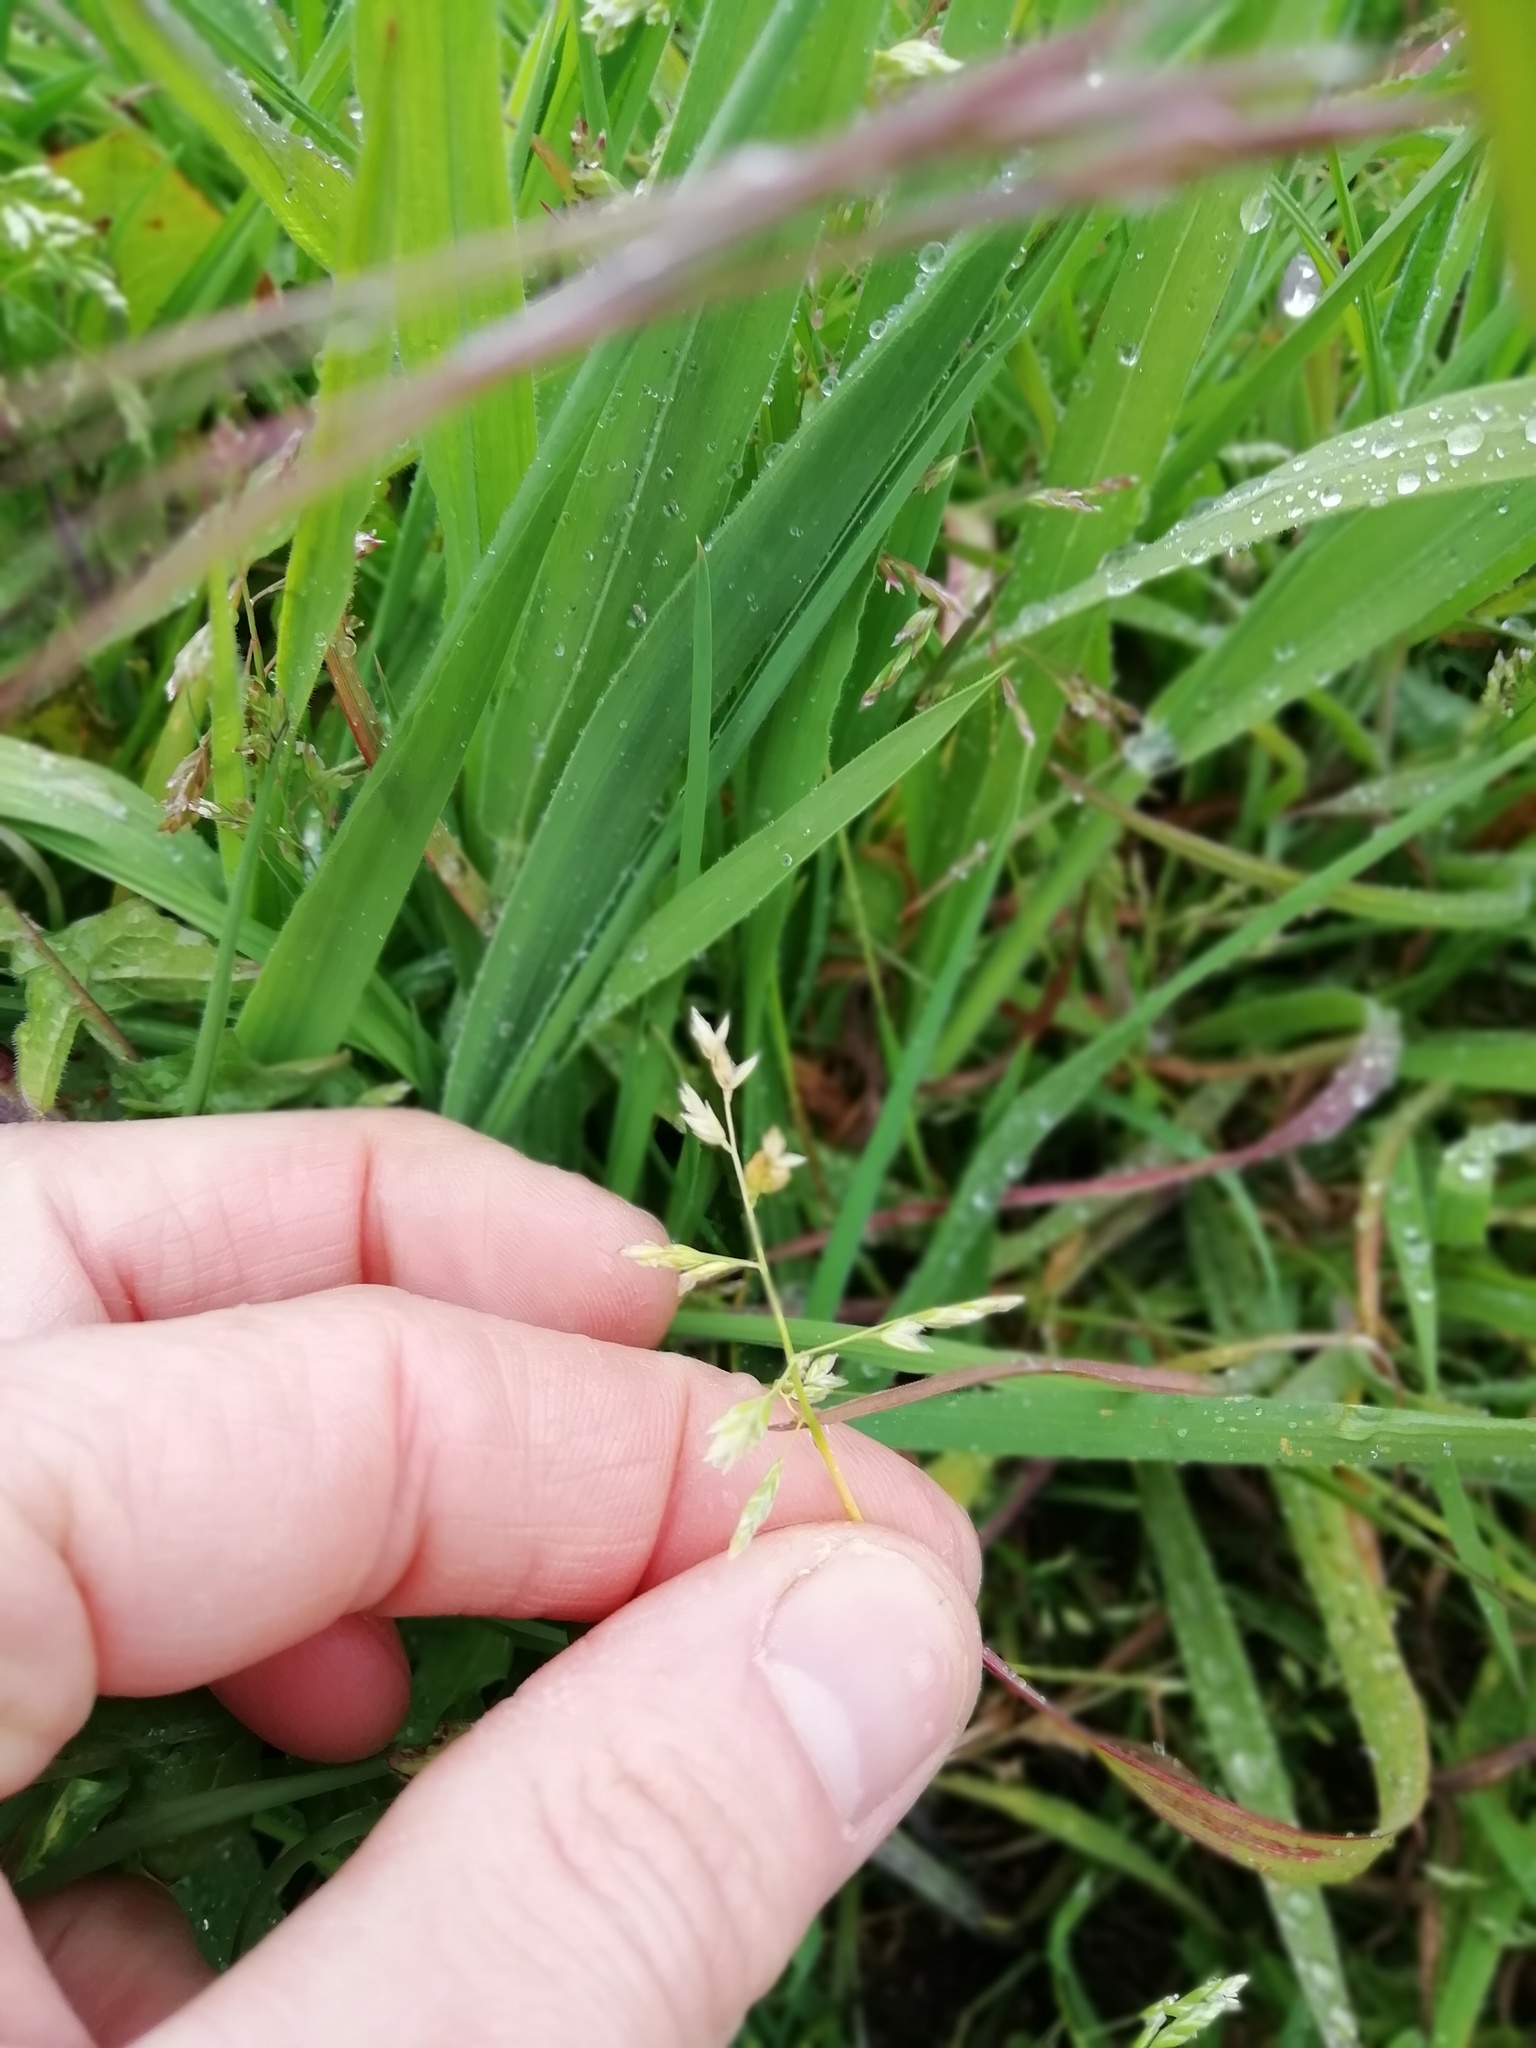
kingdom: Plantae
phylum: Tracheophyta
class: Liliopsida
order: Poales
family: Poaceae
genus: Poa
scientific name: Poa annua
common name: Annual bluegrass
